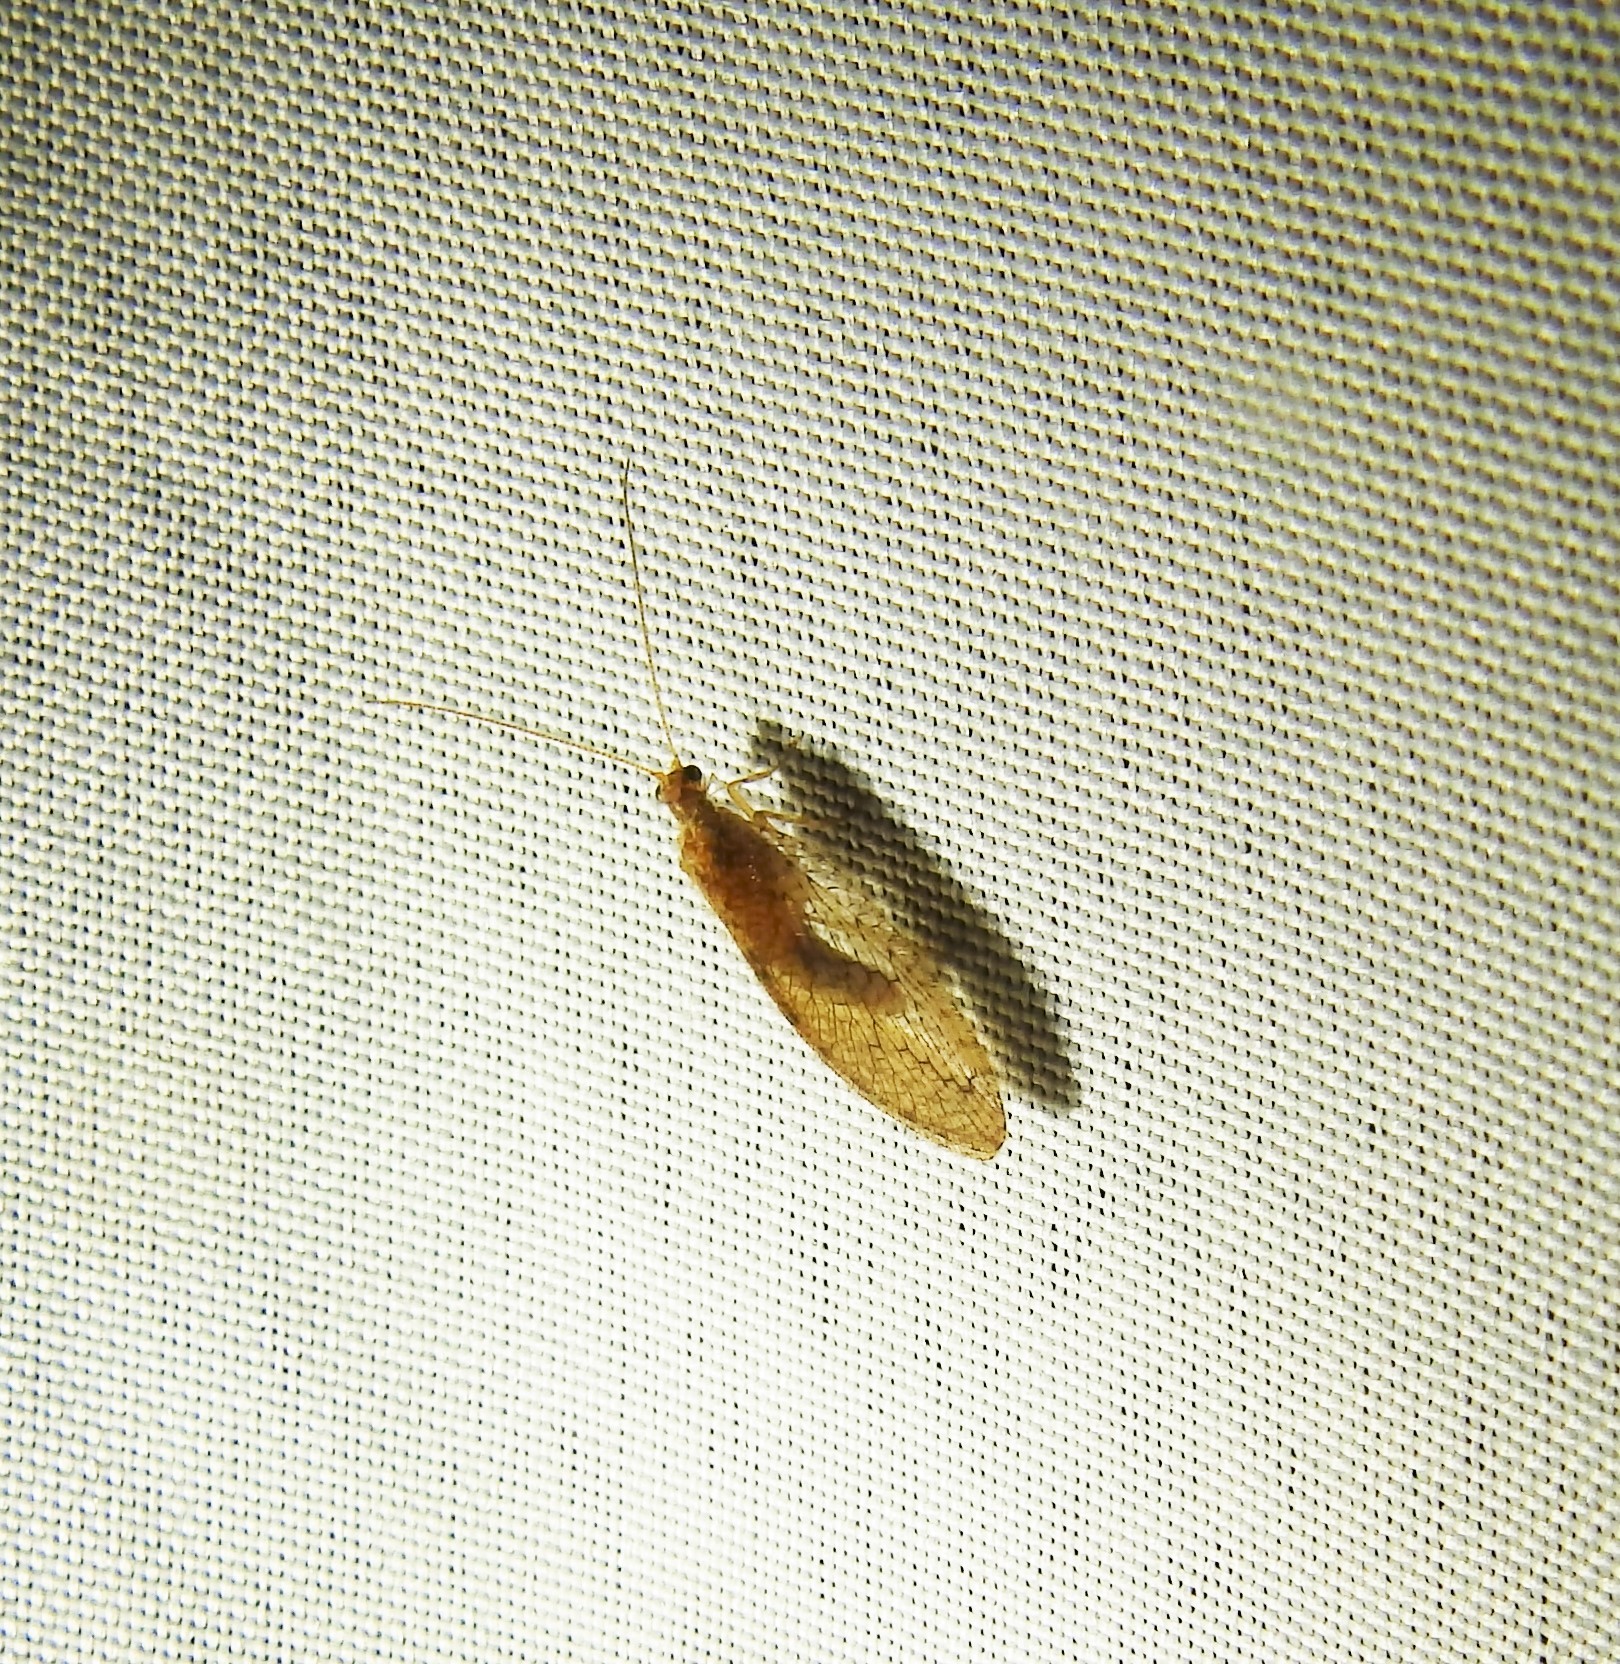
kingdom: Animalia
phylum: Arthropoda
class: Insecta
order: Neuroptera
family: Hemerobiidae
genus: Micromus
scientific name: Micromus posticus
